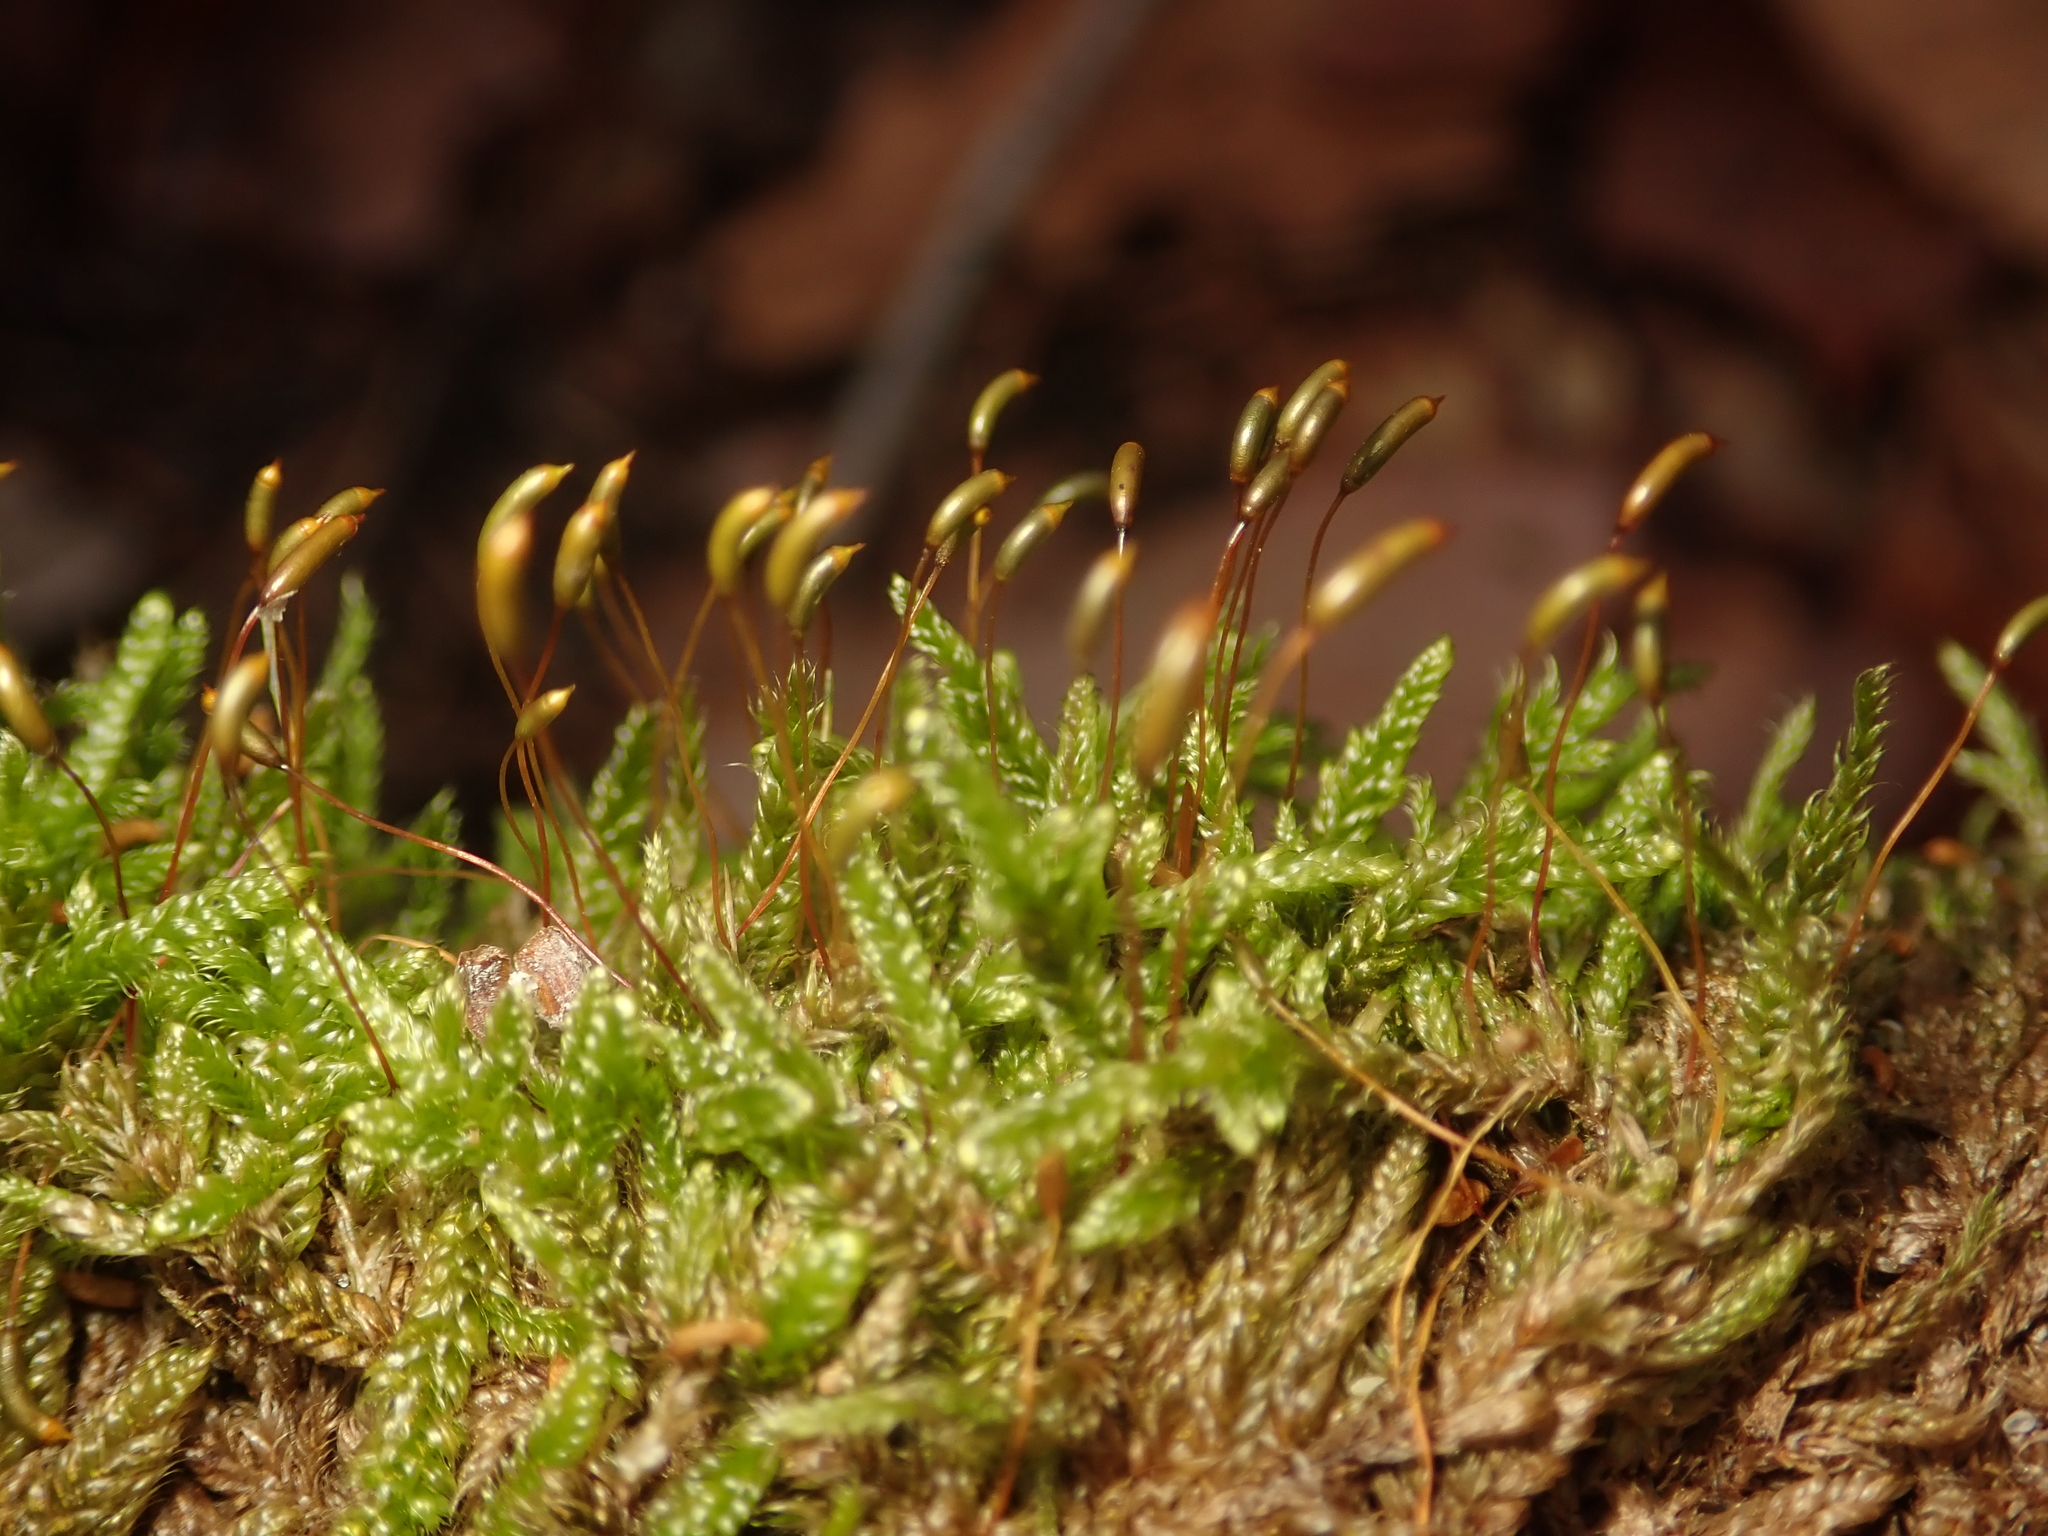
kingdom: Plantae
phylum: Bryophyta
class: Bryopsida
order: Hypnales
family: Hypnaceae
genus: Hypnum
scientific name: Hypnum cupressiforme
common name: Cypress-leaved plait-moss
